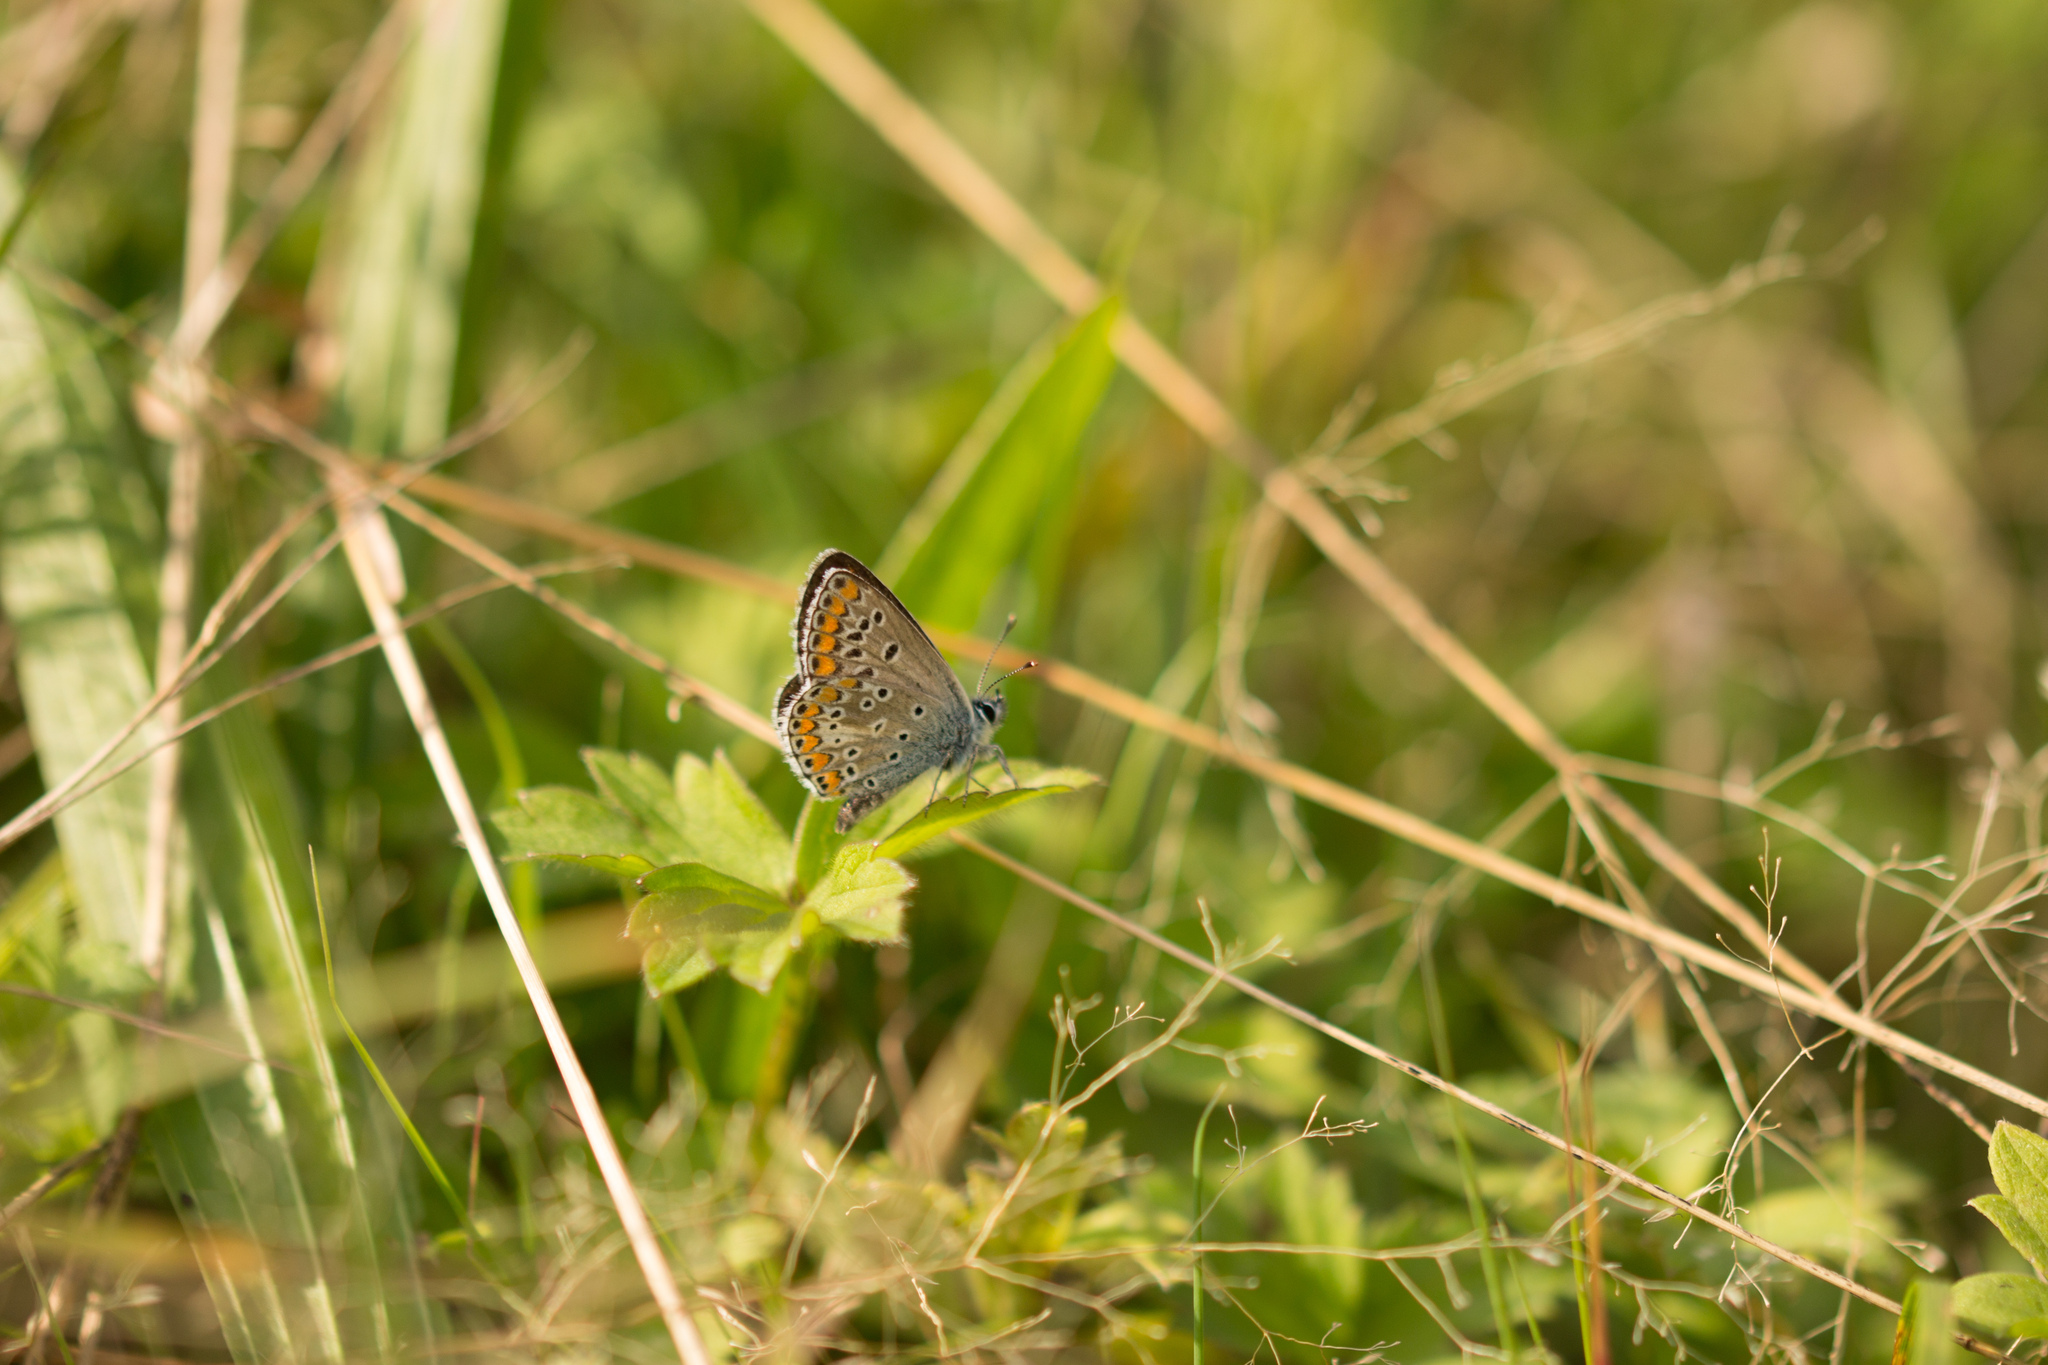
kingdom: Animalia
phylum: Arthropoda
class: Insecta
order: Lepidoptera
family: Lycaenidae
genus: Aricia
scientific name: Aricia agestis
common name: Brown argus
